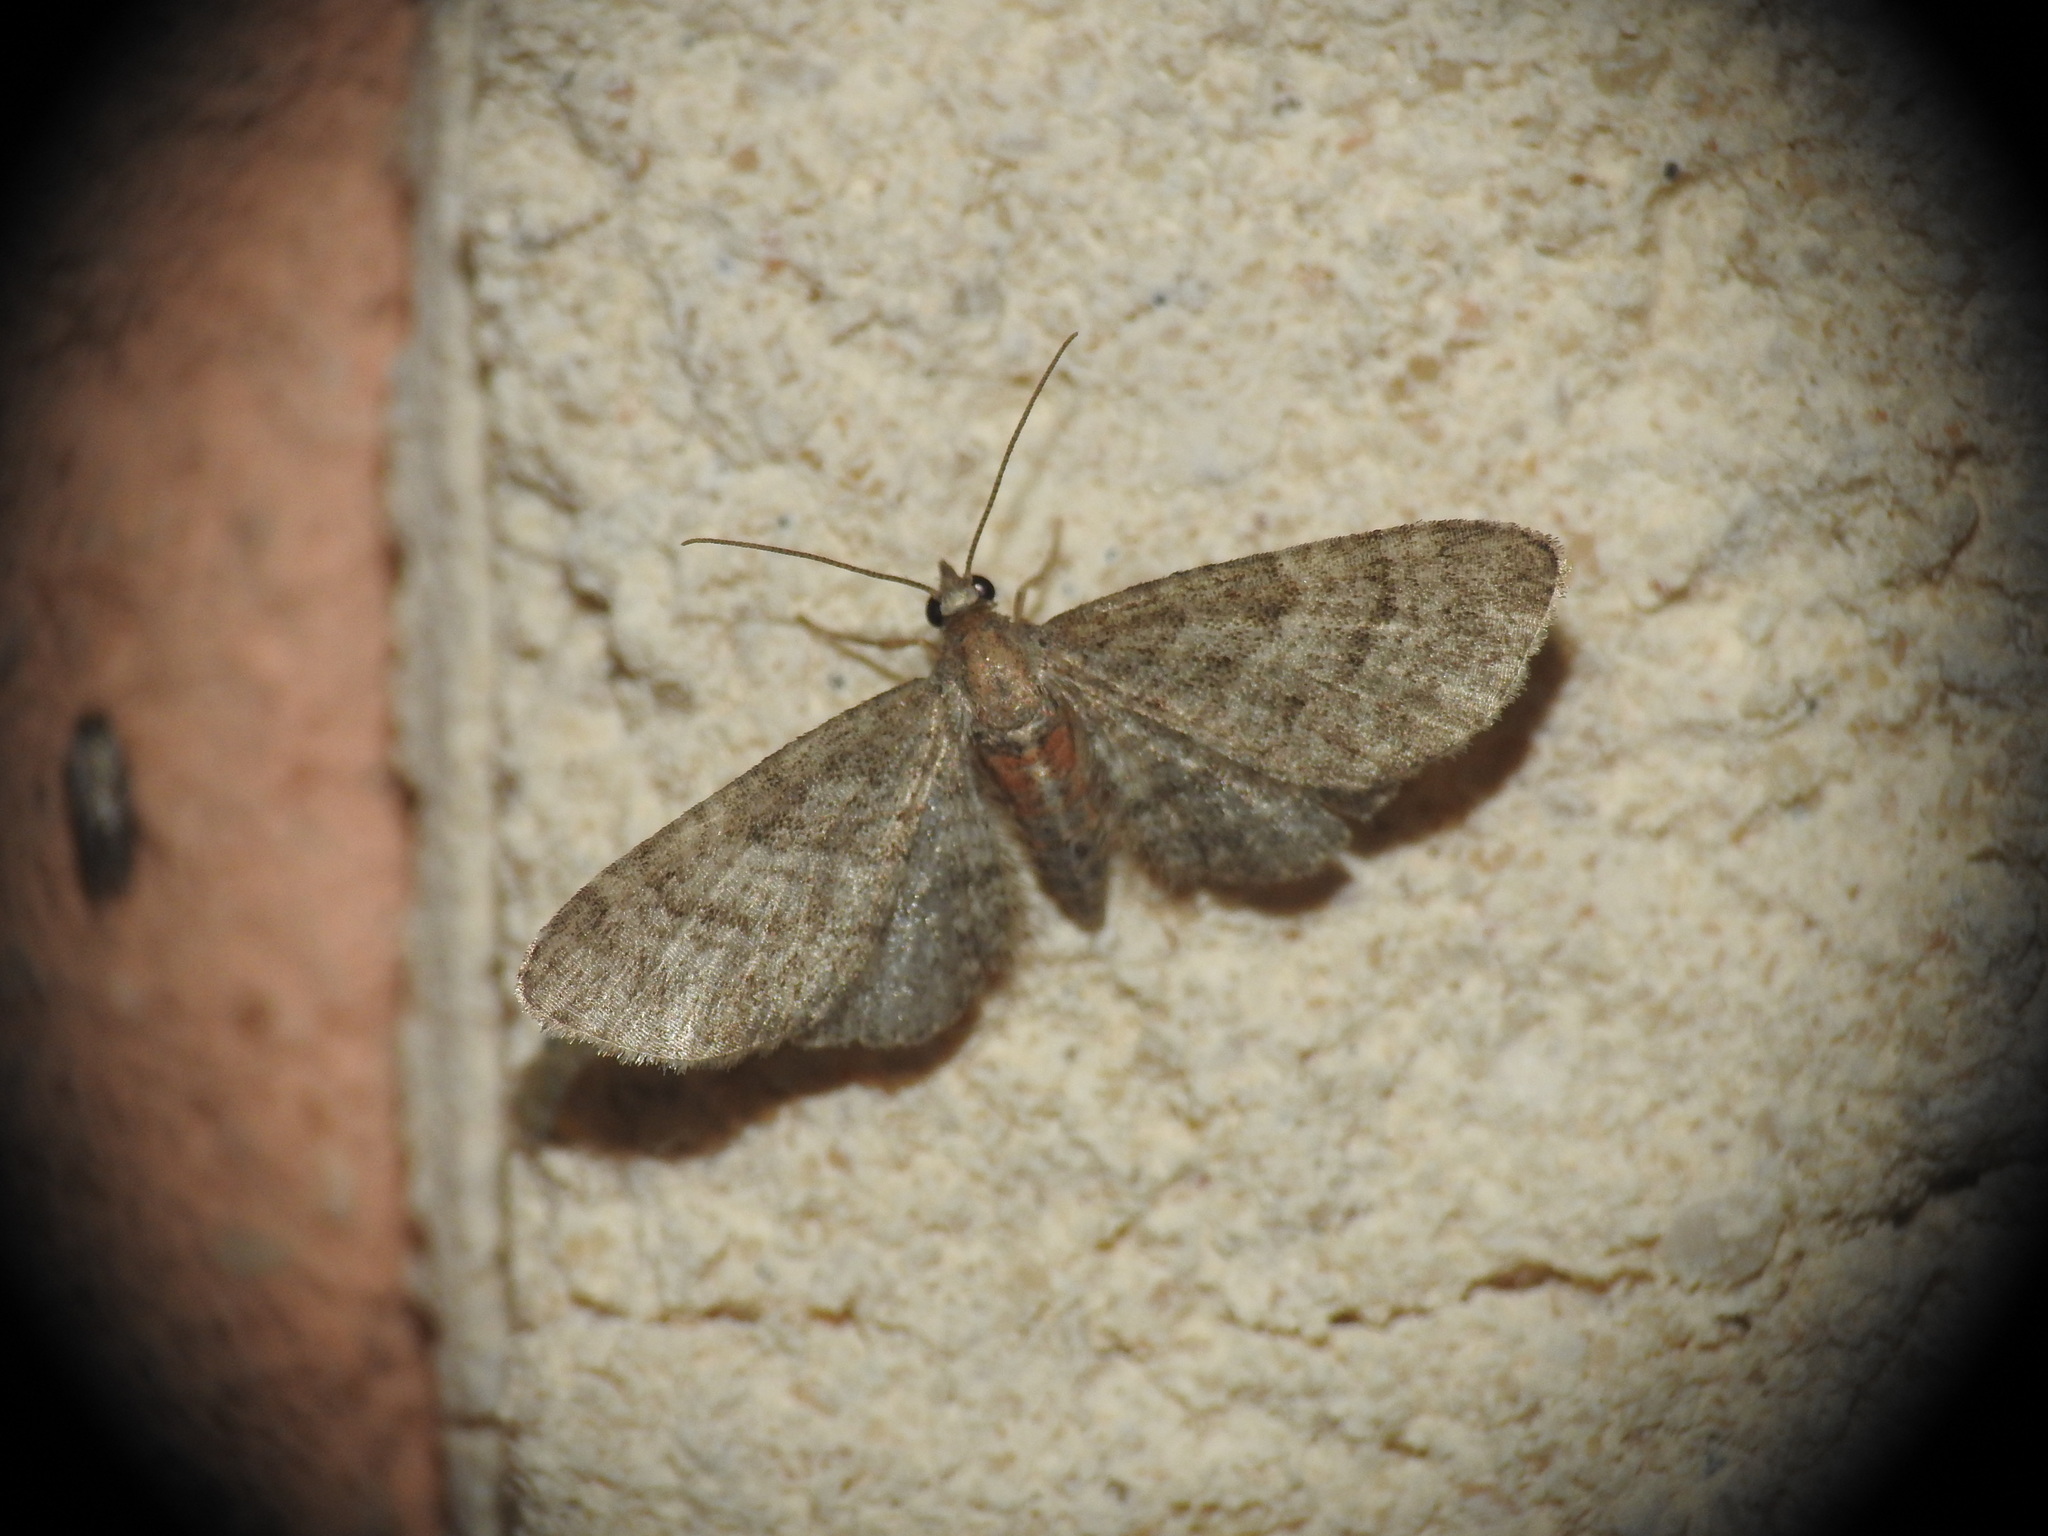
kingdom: Animalia
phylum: Arthropoda
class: Insecta
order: Lepidoptera
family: Geometridae
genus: Eupithecia
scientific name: Eupithecia haworthiata
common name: Haworth's pug
